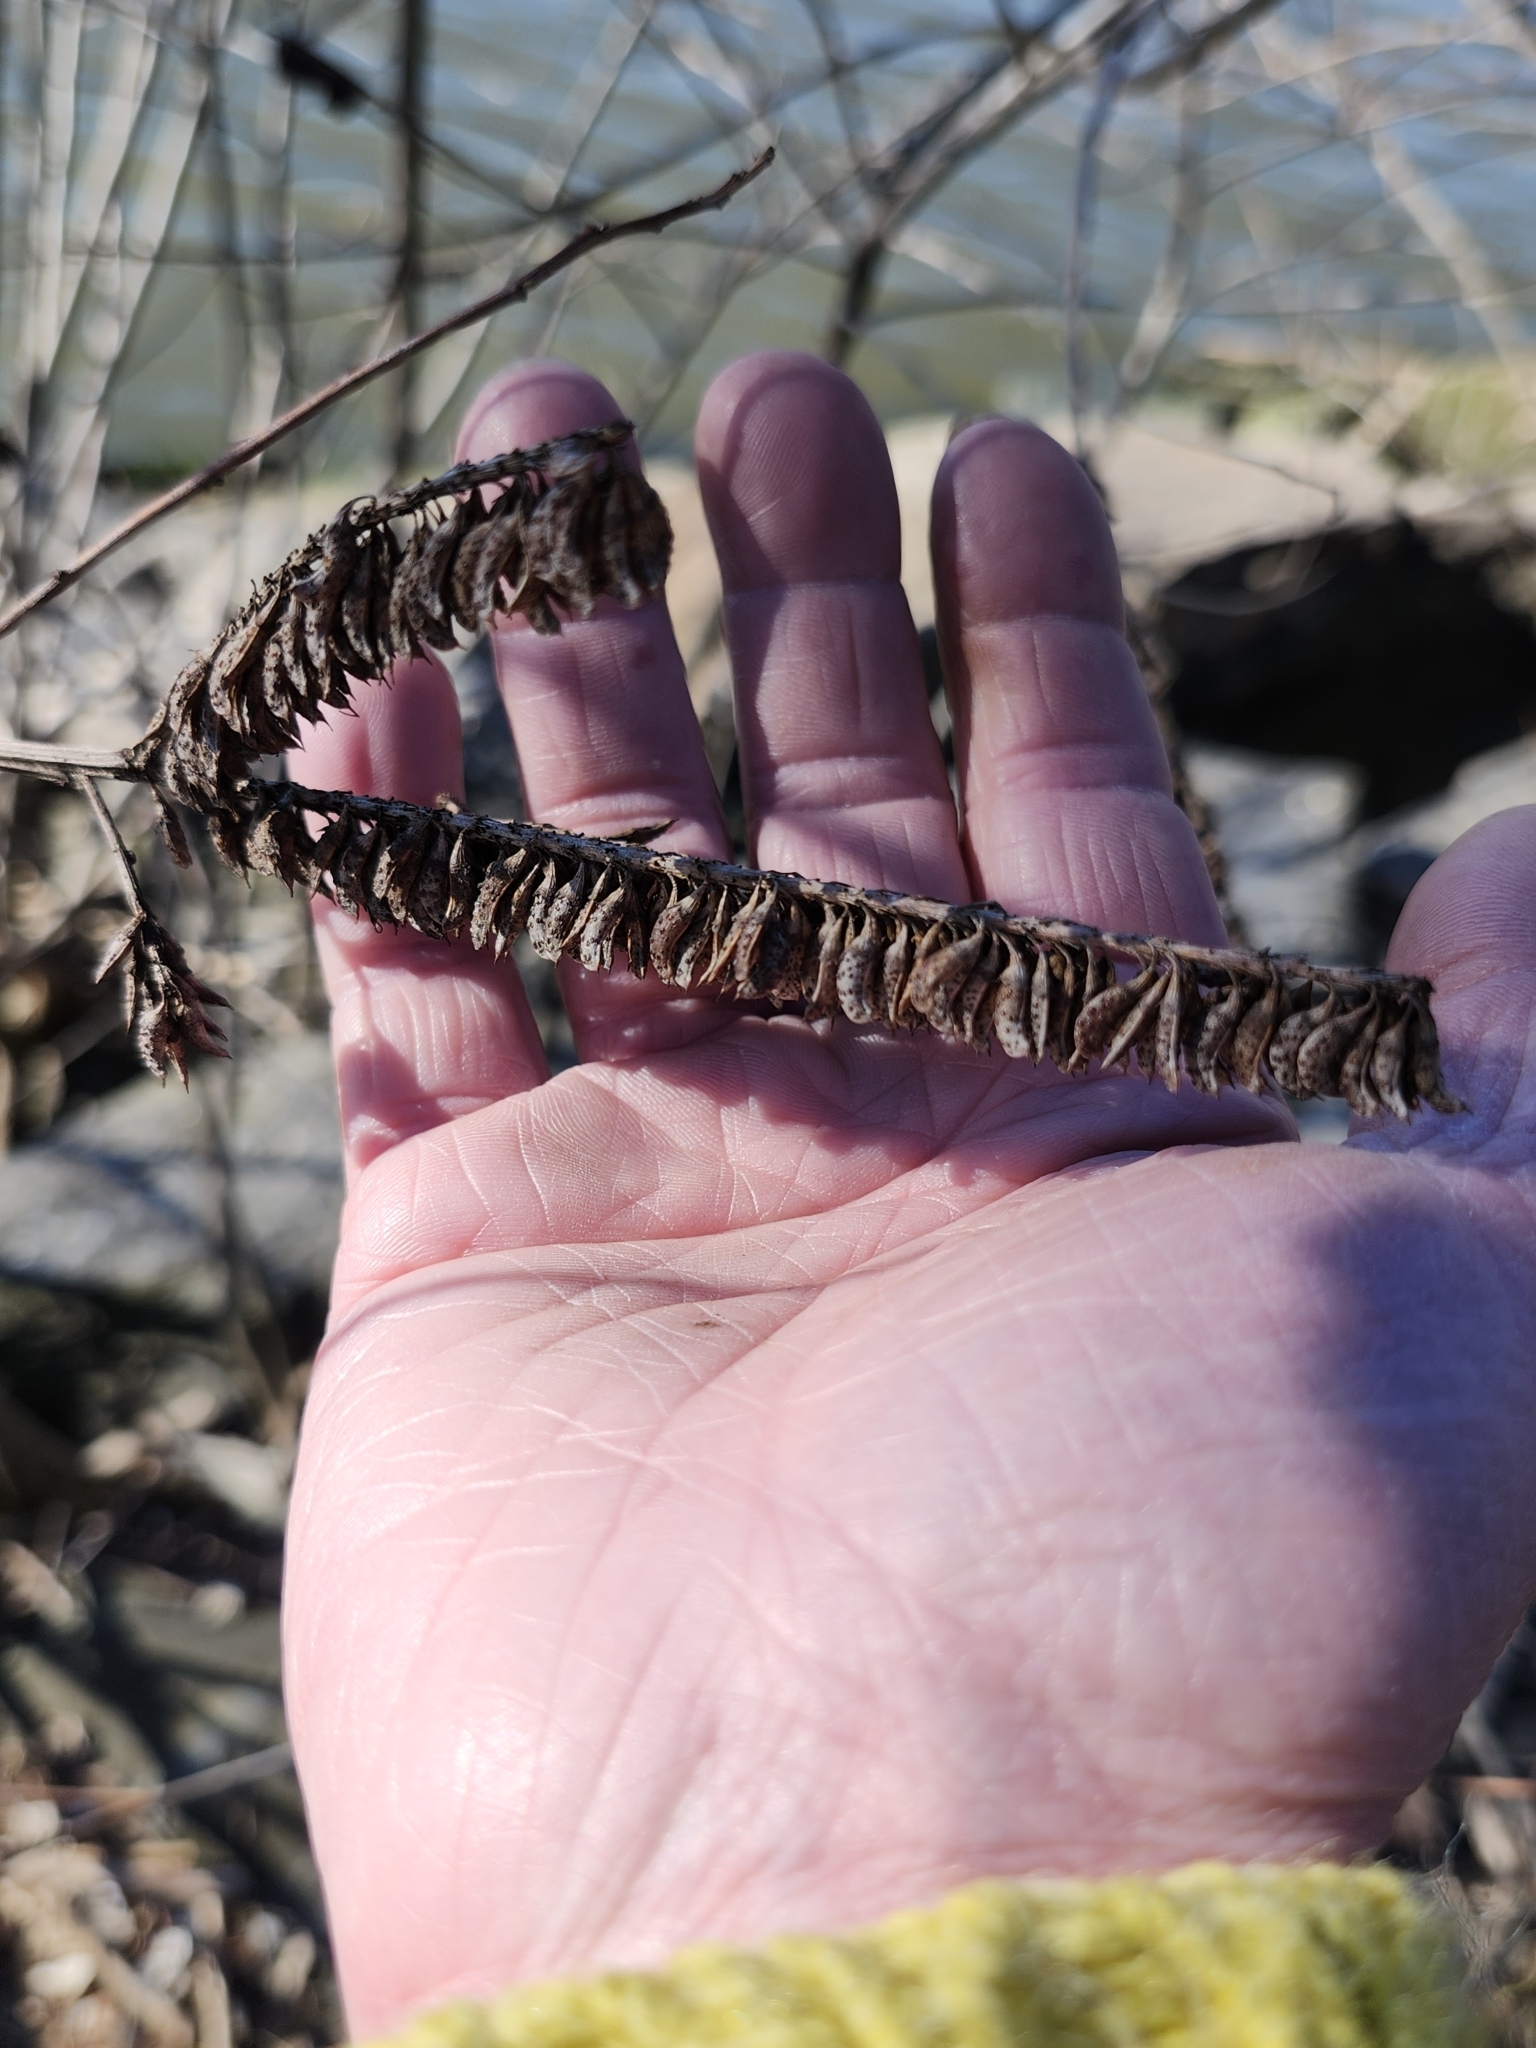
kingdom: Plantae
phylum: Tracheophyta
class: Magnoliopsida
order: Fabales
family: Fabaceae
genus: Amorpha
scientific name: Amorpha fruticosa
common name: False indigo
